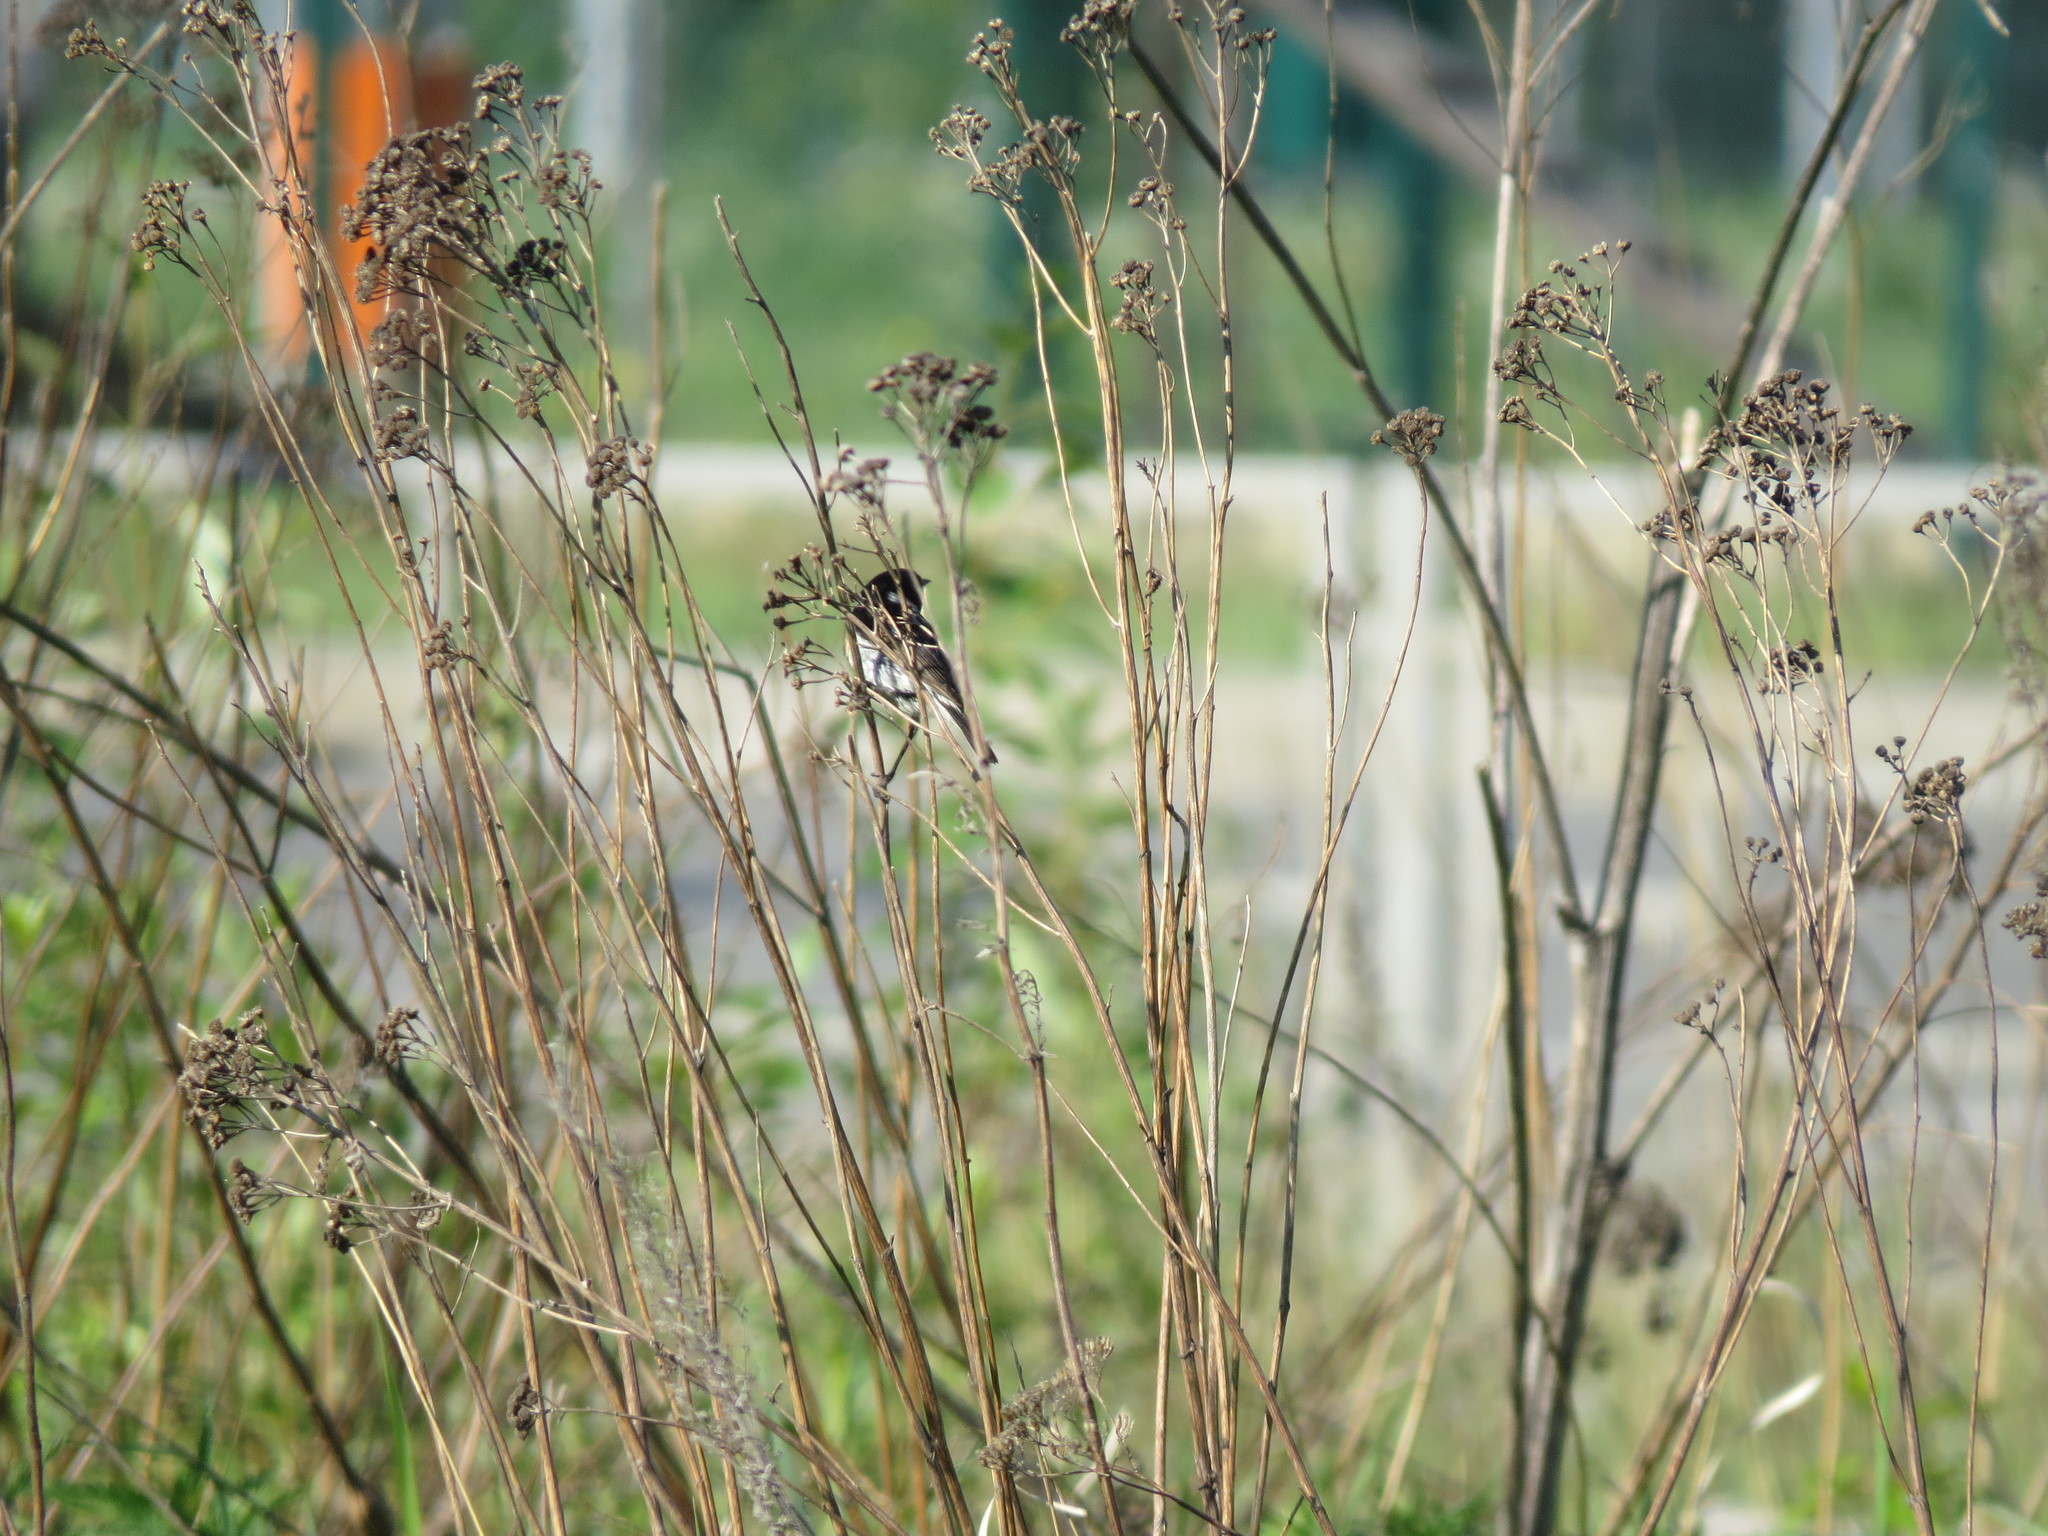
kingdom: Animalia
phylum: Chordata
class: Aves
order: Passeriformes
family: Muscicapidae
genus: Saxicola
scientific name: Saxicola maurus
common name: Siberian stonechat
